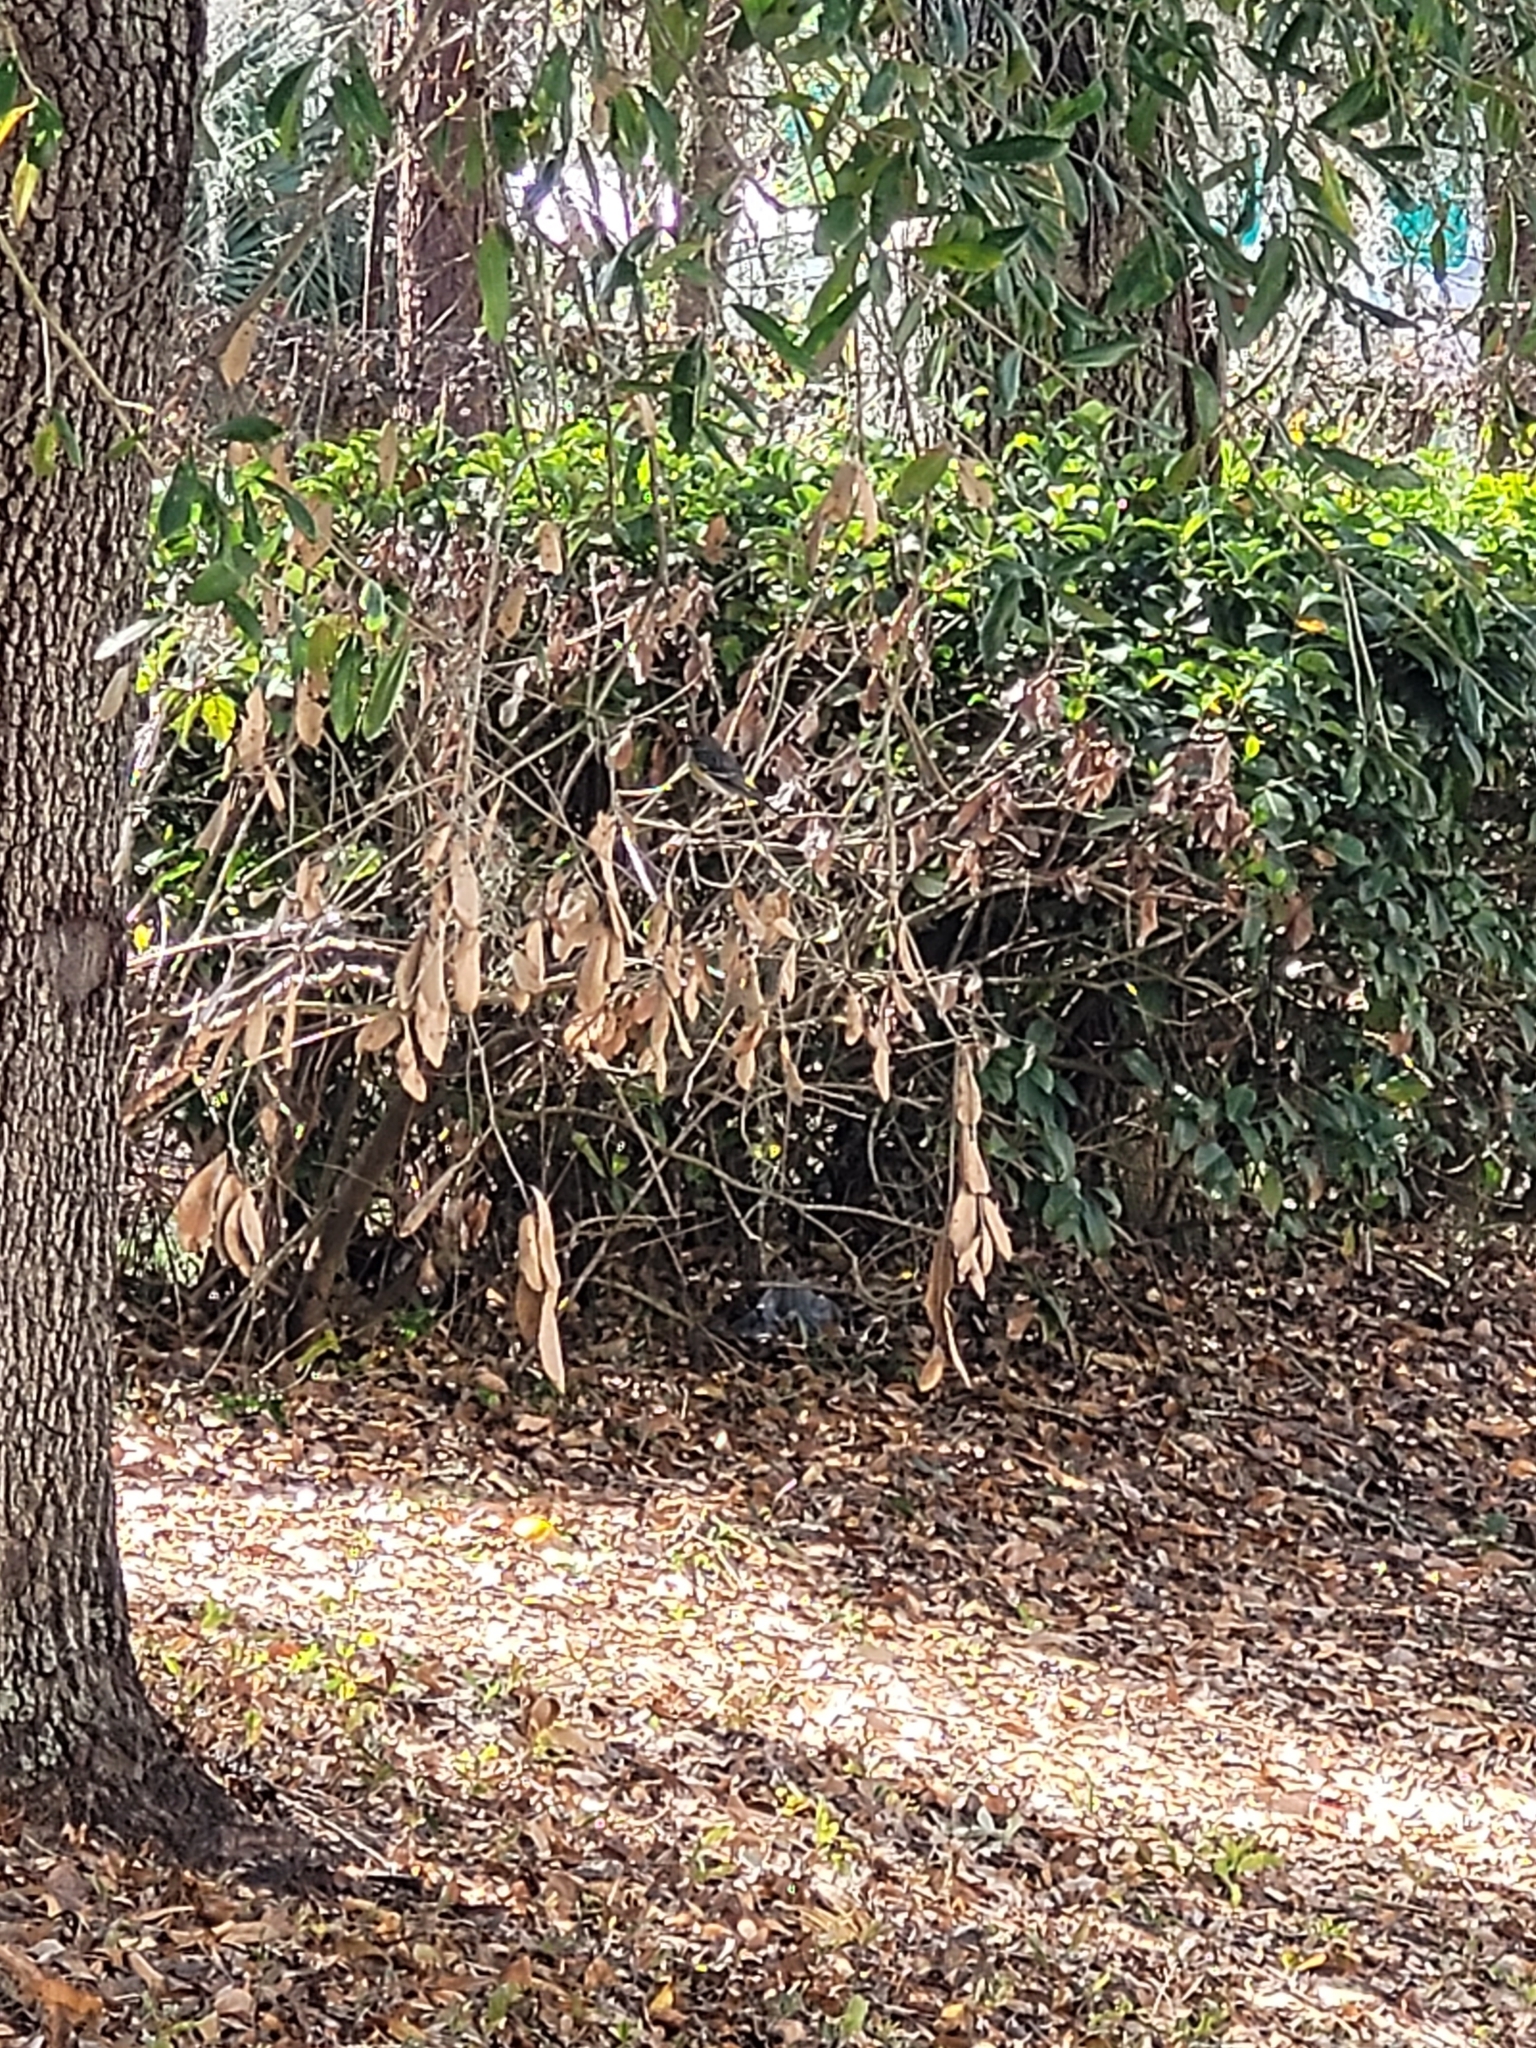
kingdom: Animalia
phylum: Chordata
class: Aves
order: Passeriformes
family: Parulidae
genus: Setophaga
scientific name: Setophaga coronata
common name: Myrtle warbler
